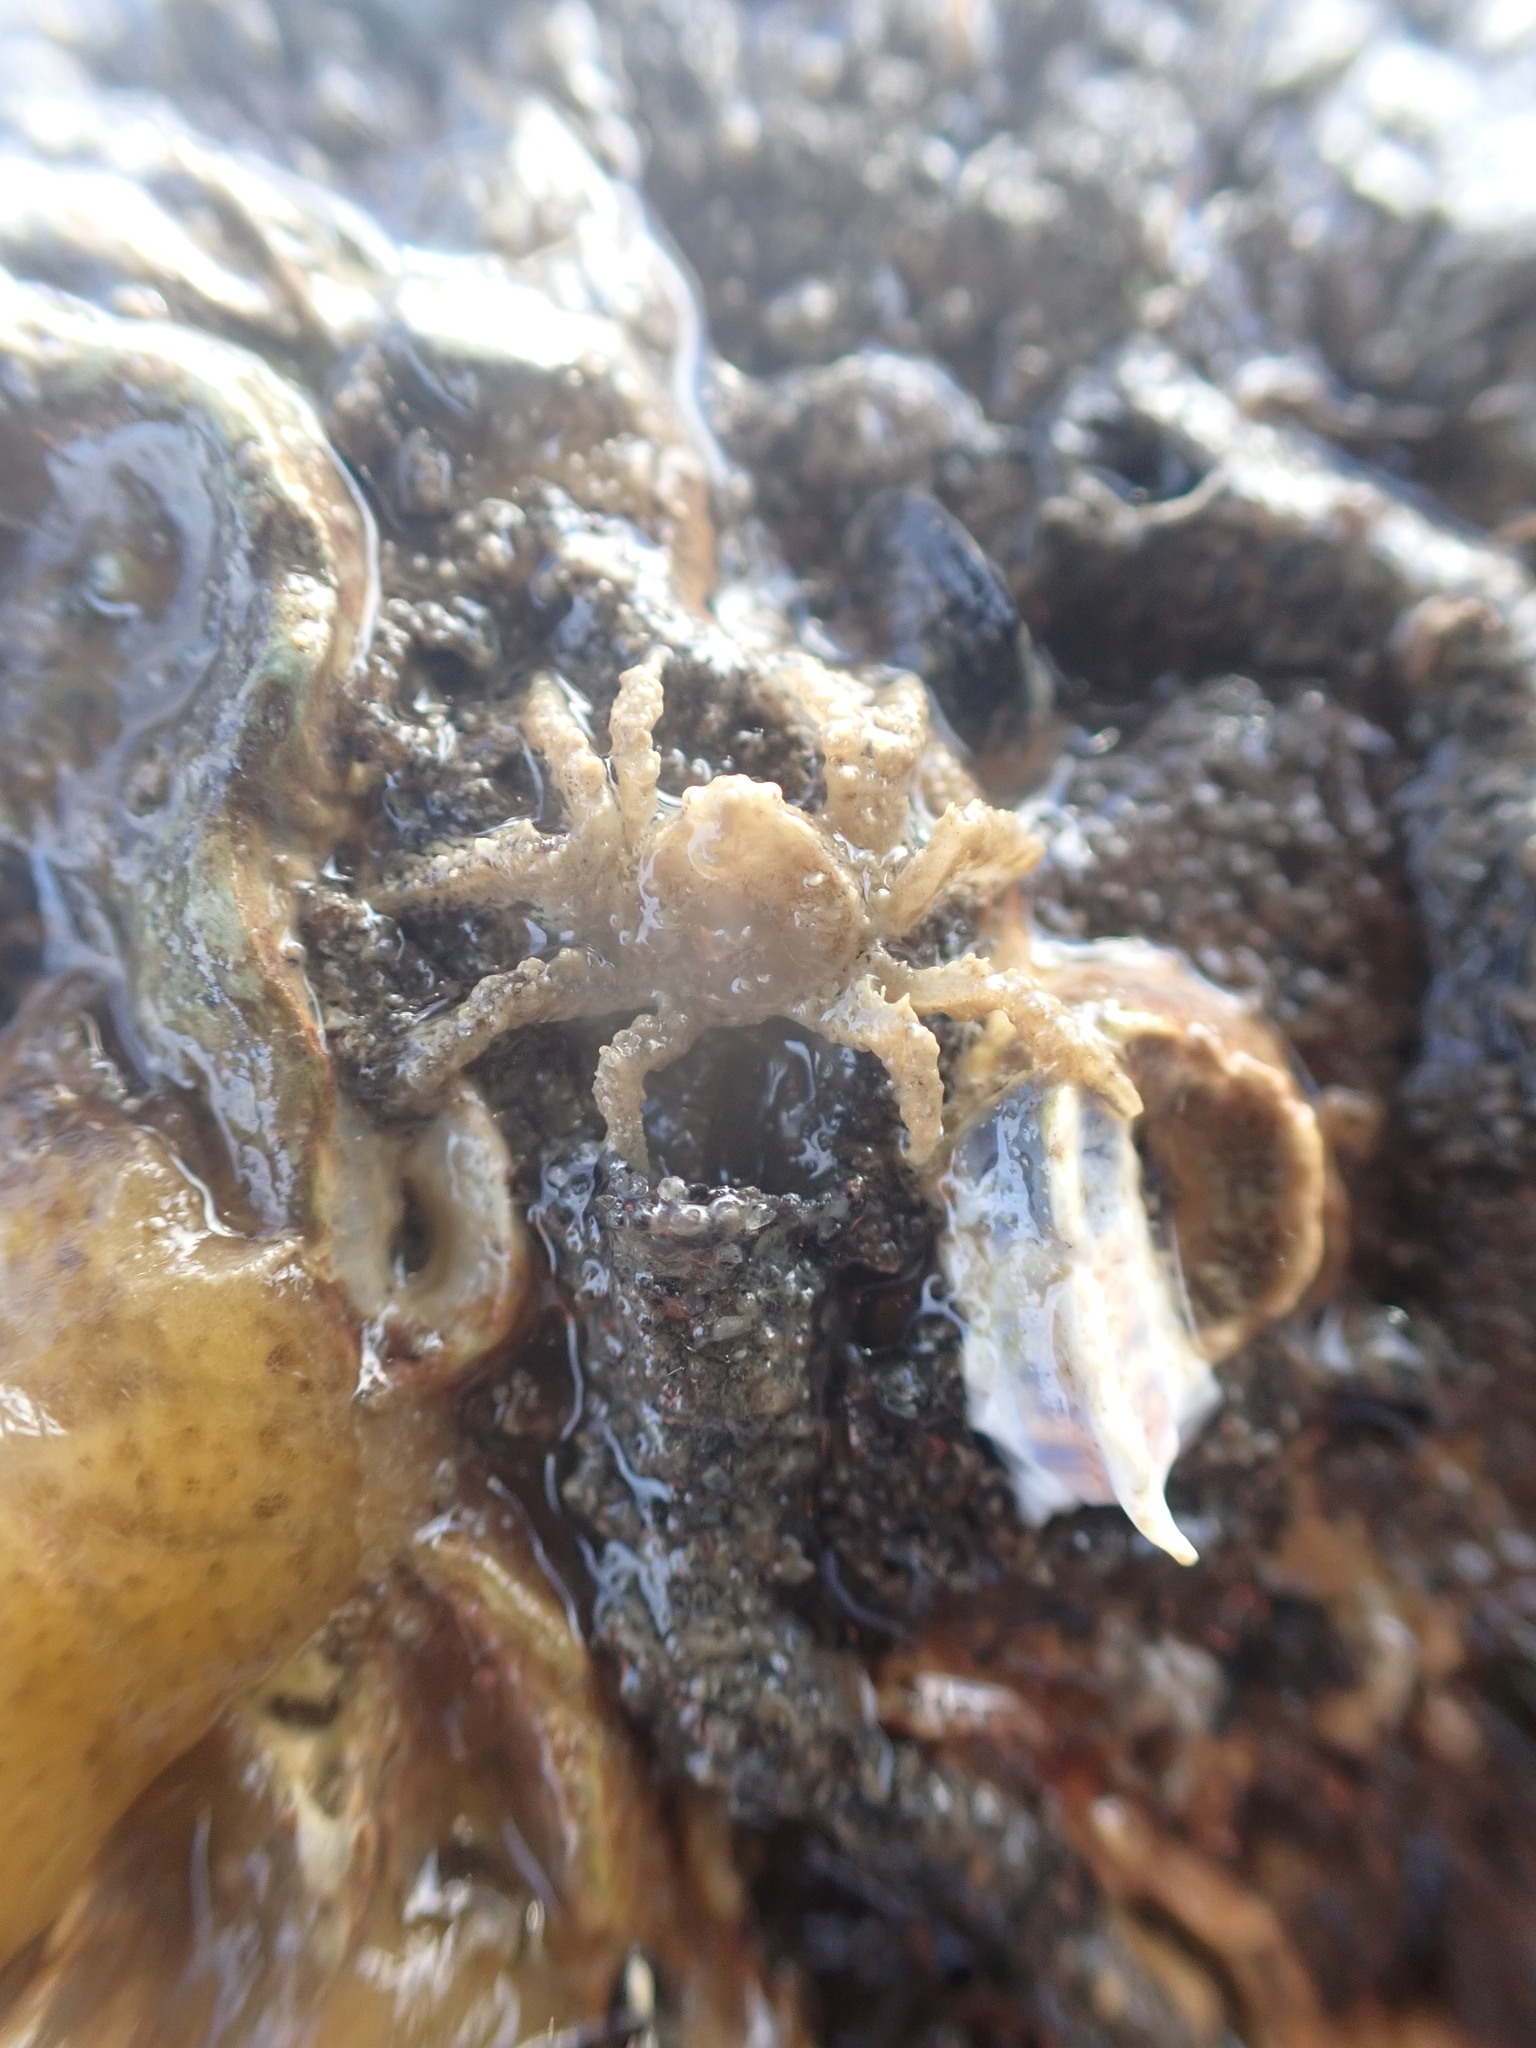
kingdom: Animalia
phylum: Arthropoda
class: Malacostraca
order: Decapoda
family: Hymenosomatidae
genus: Neohymenicus
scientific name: Neohymenicus pubescens
